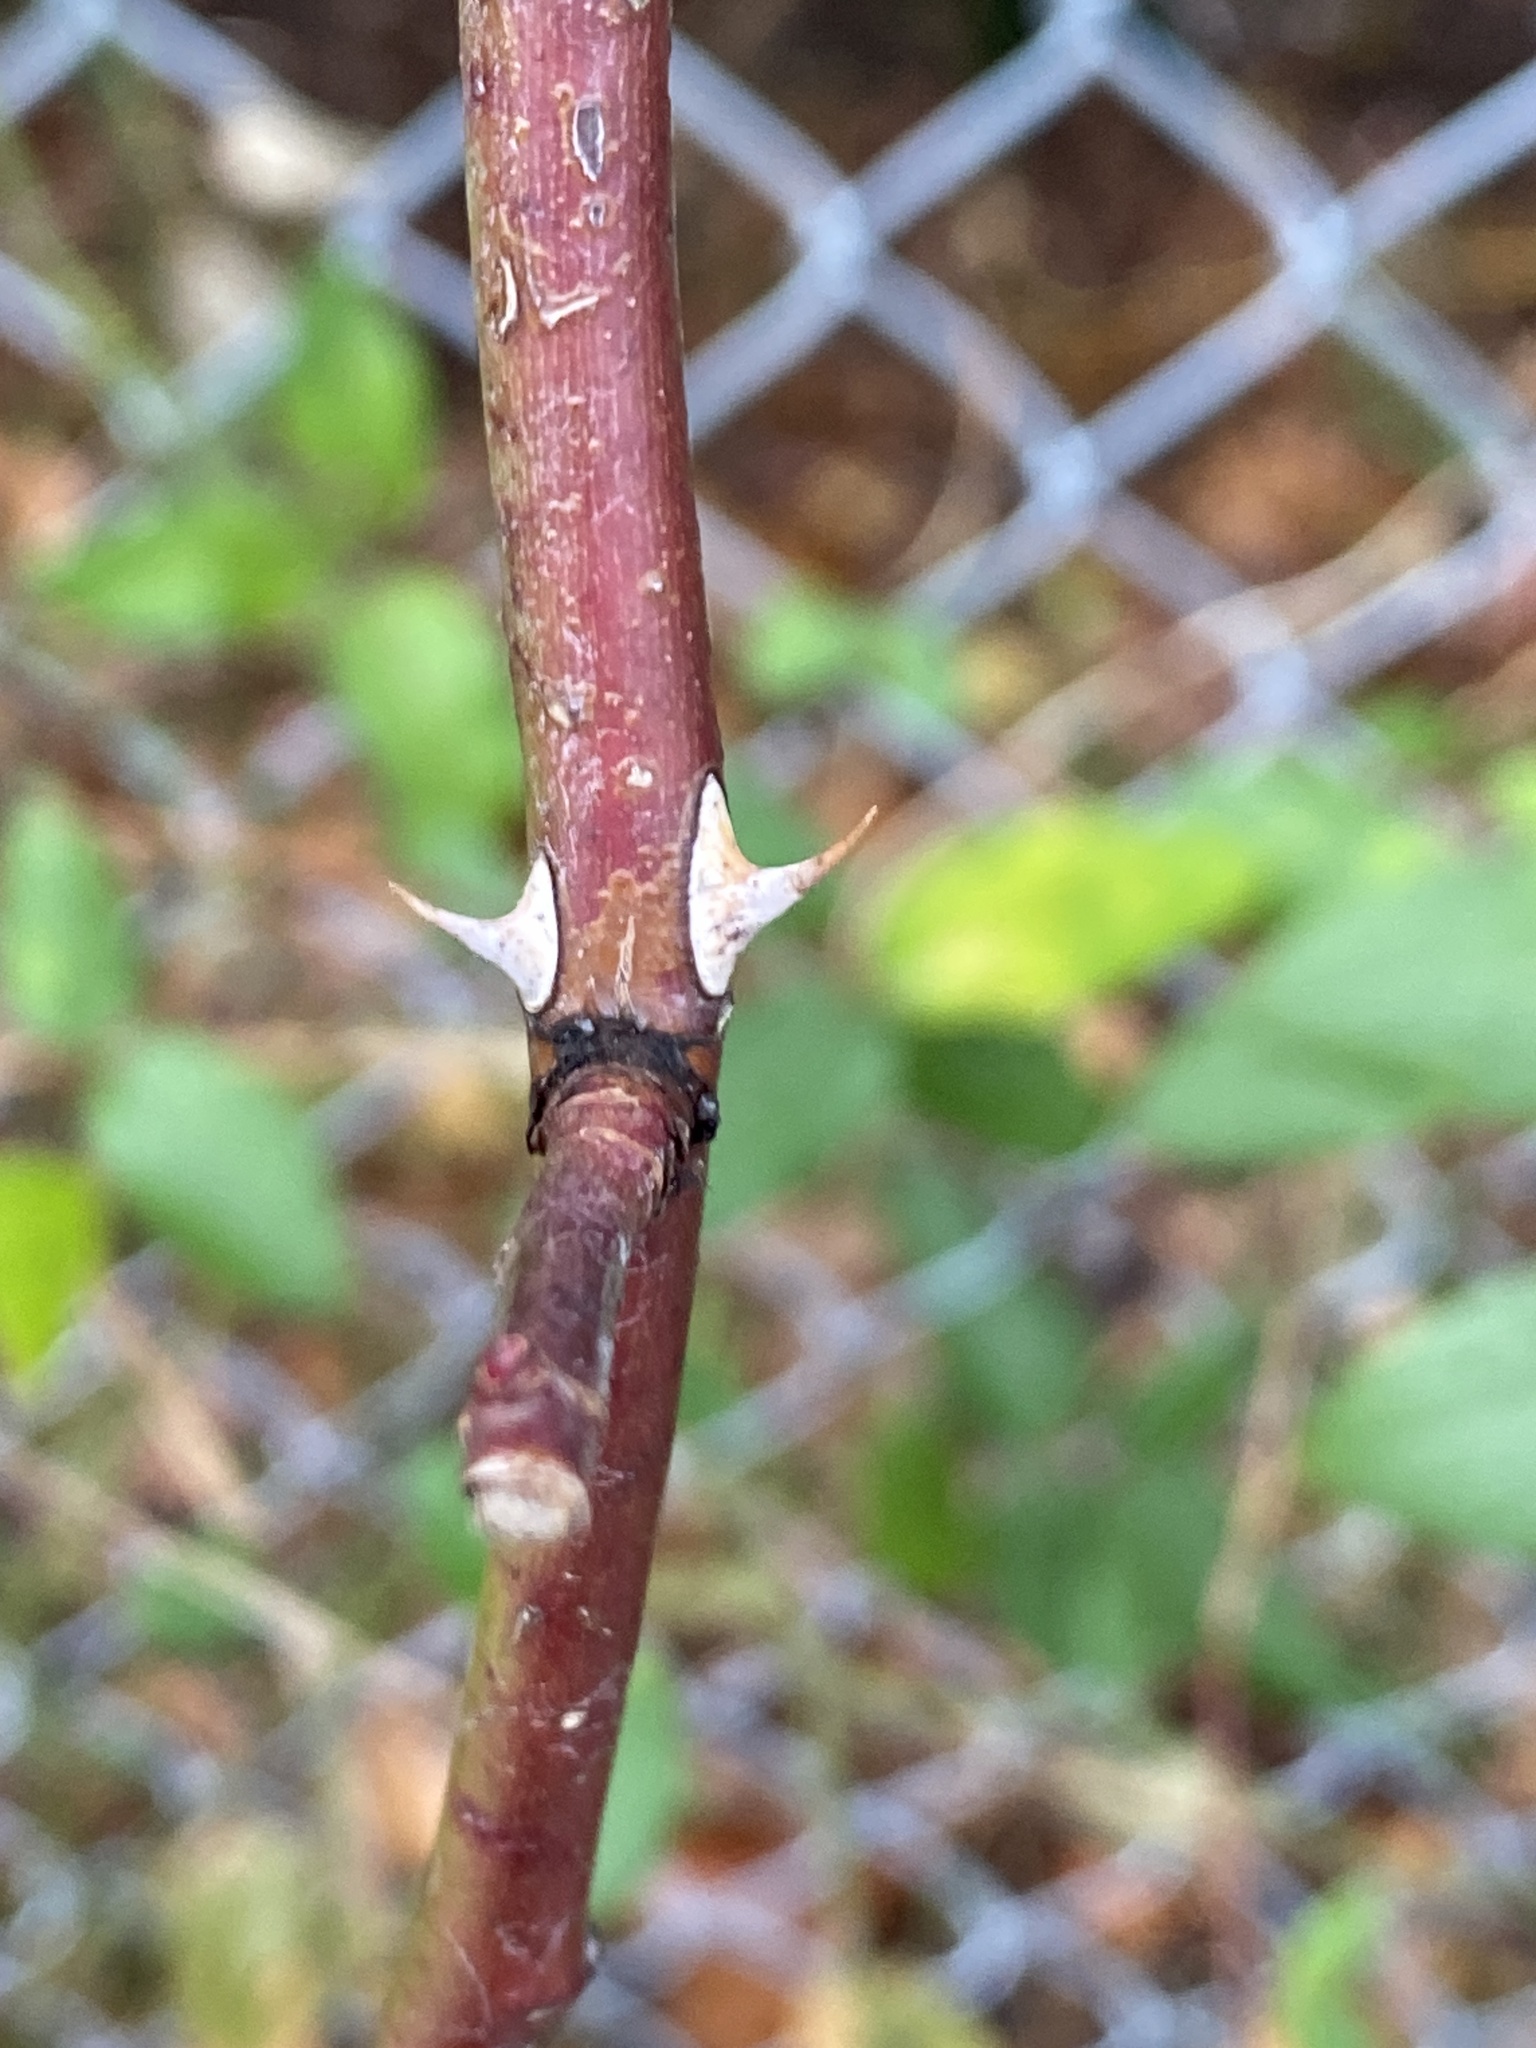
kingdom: Plantae
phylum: Tracheophyta
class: Magnoliopsida
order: Rosales
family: Rosaceae
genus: Rosa
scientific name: Rosa multiflora
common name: Multiflora rose
